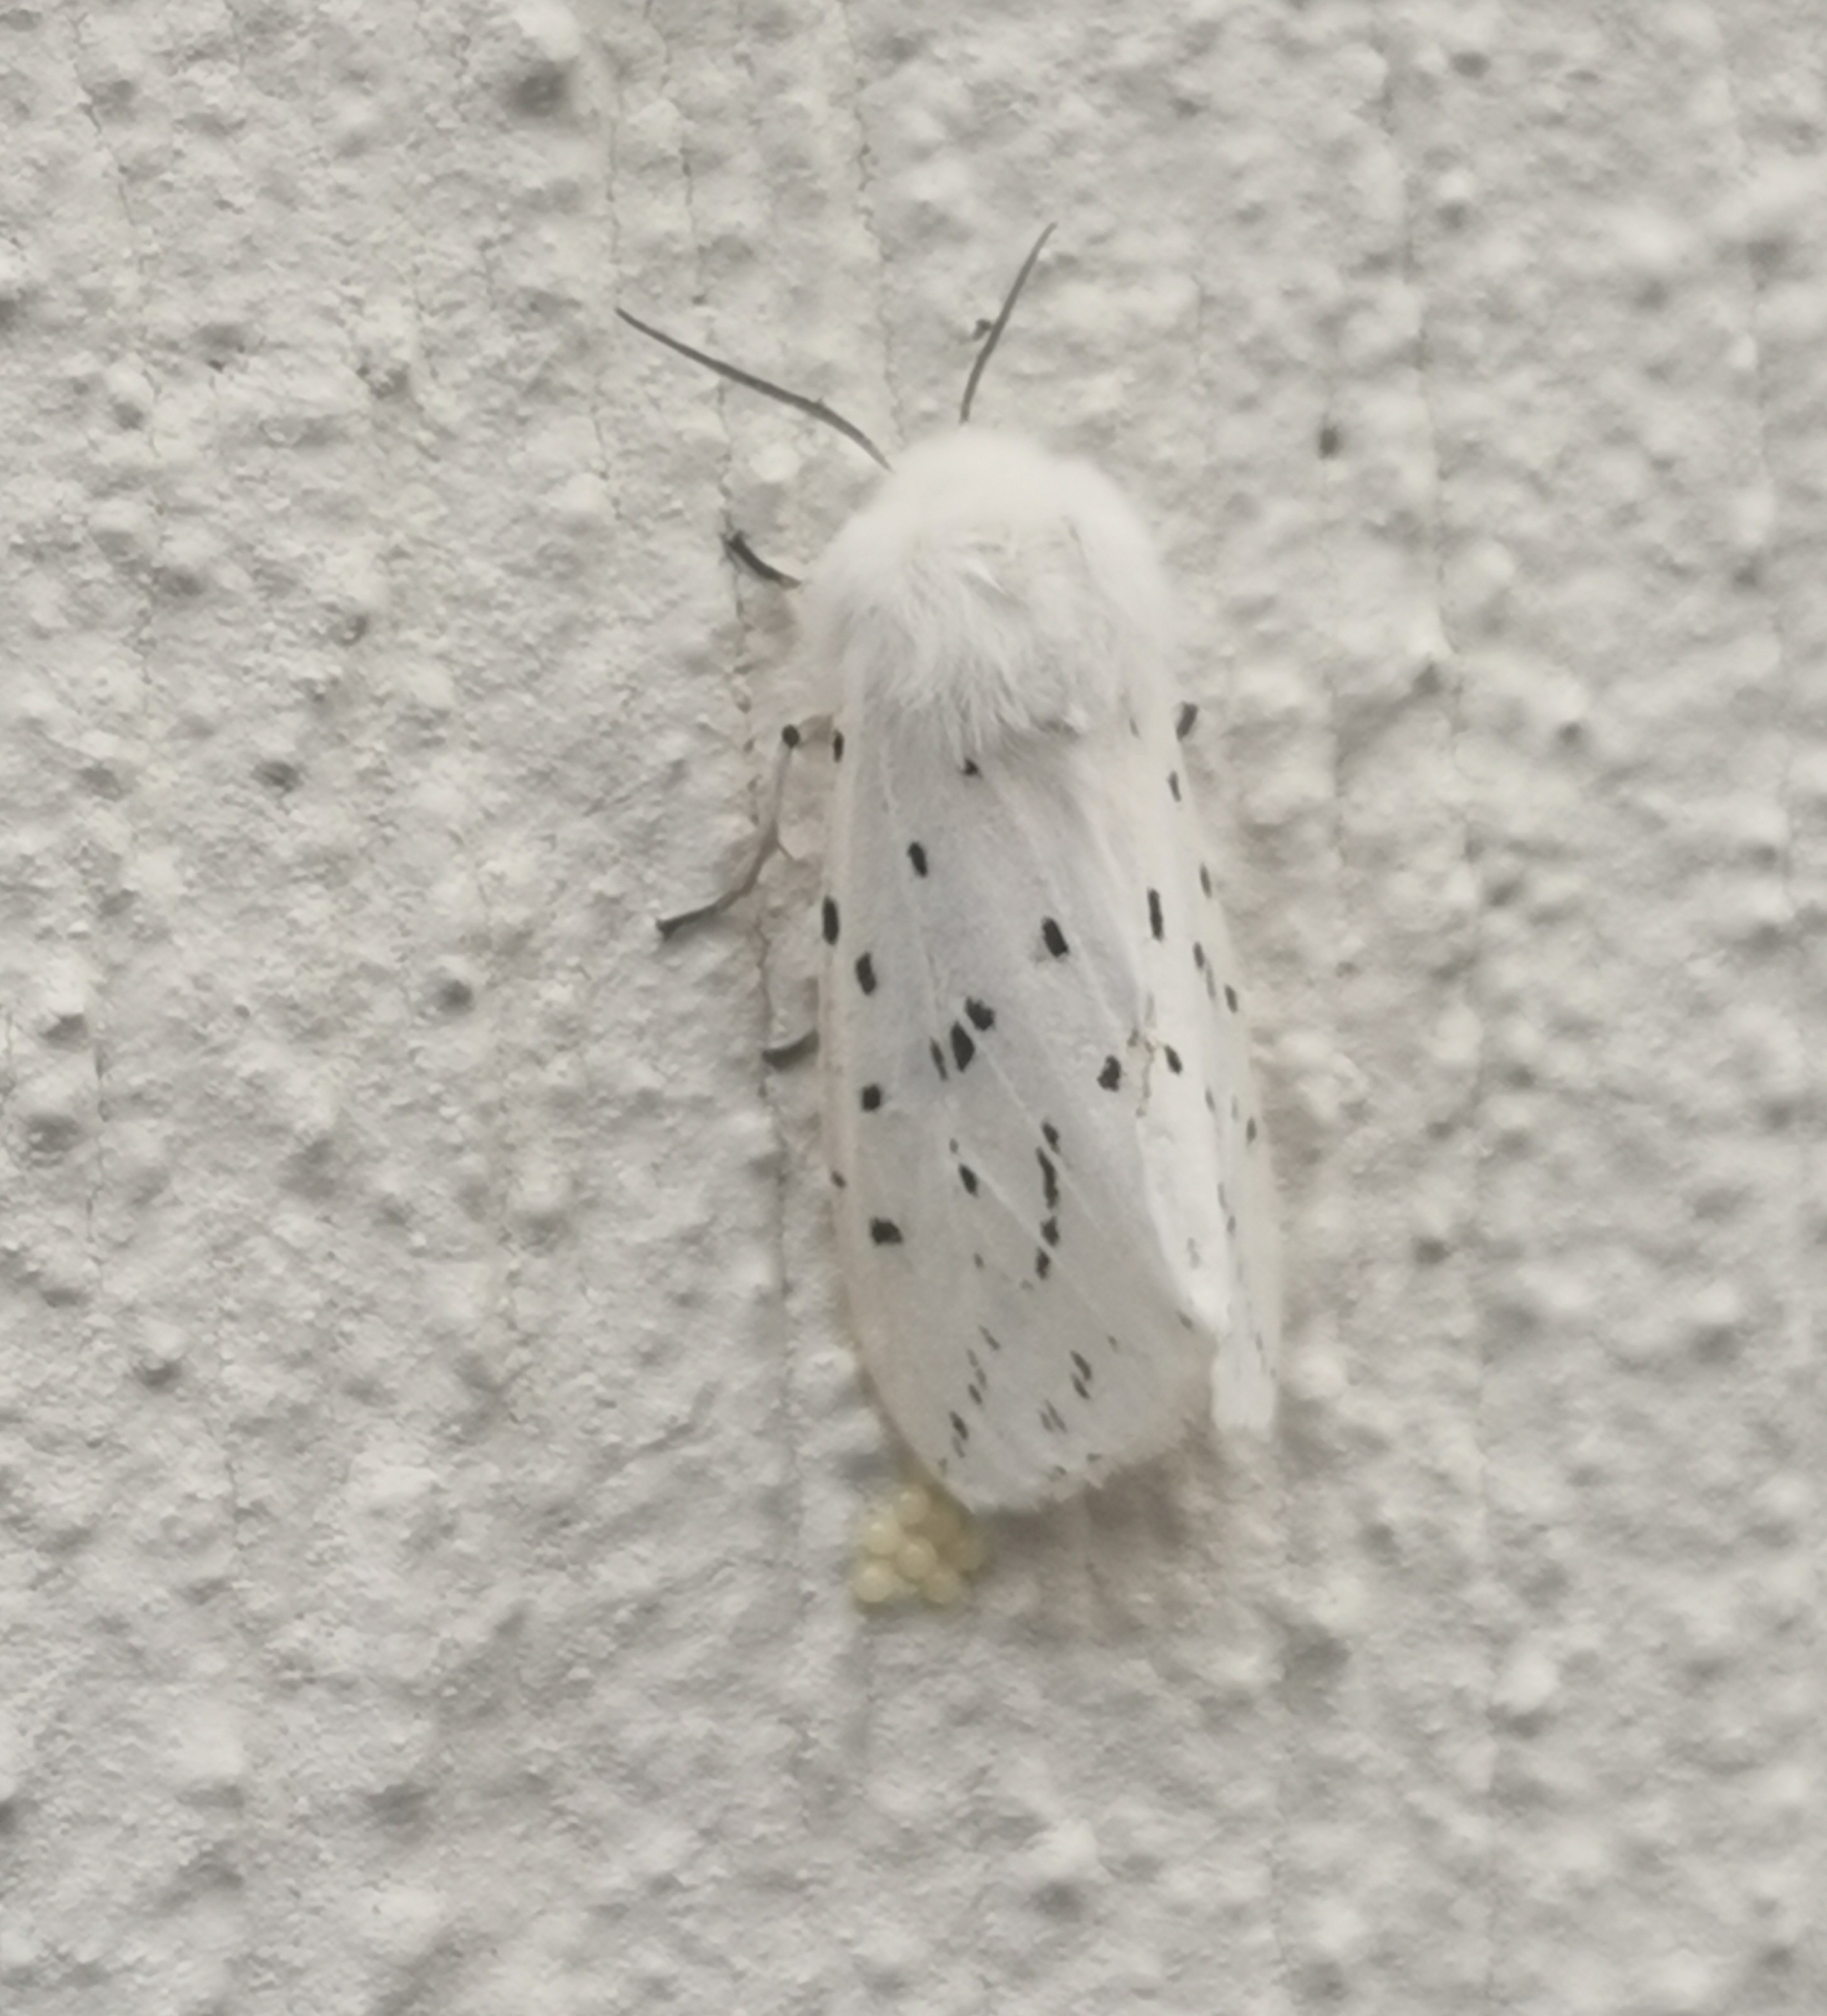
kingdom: Animalia
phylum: Arthropoda
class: Insecta
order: Lepidoptera
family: Erebidae
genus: Spilosoma
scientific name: Spilosoma lubricipeda
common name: White ermine
